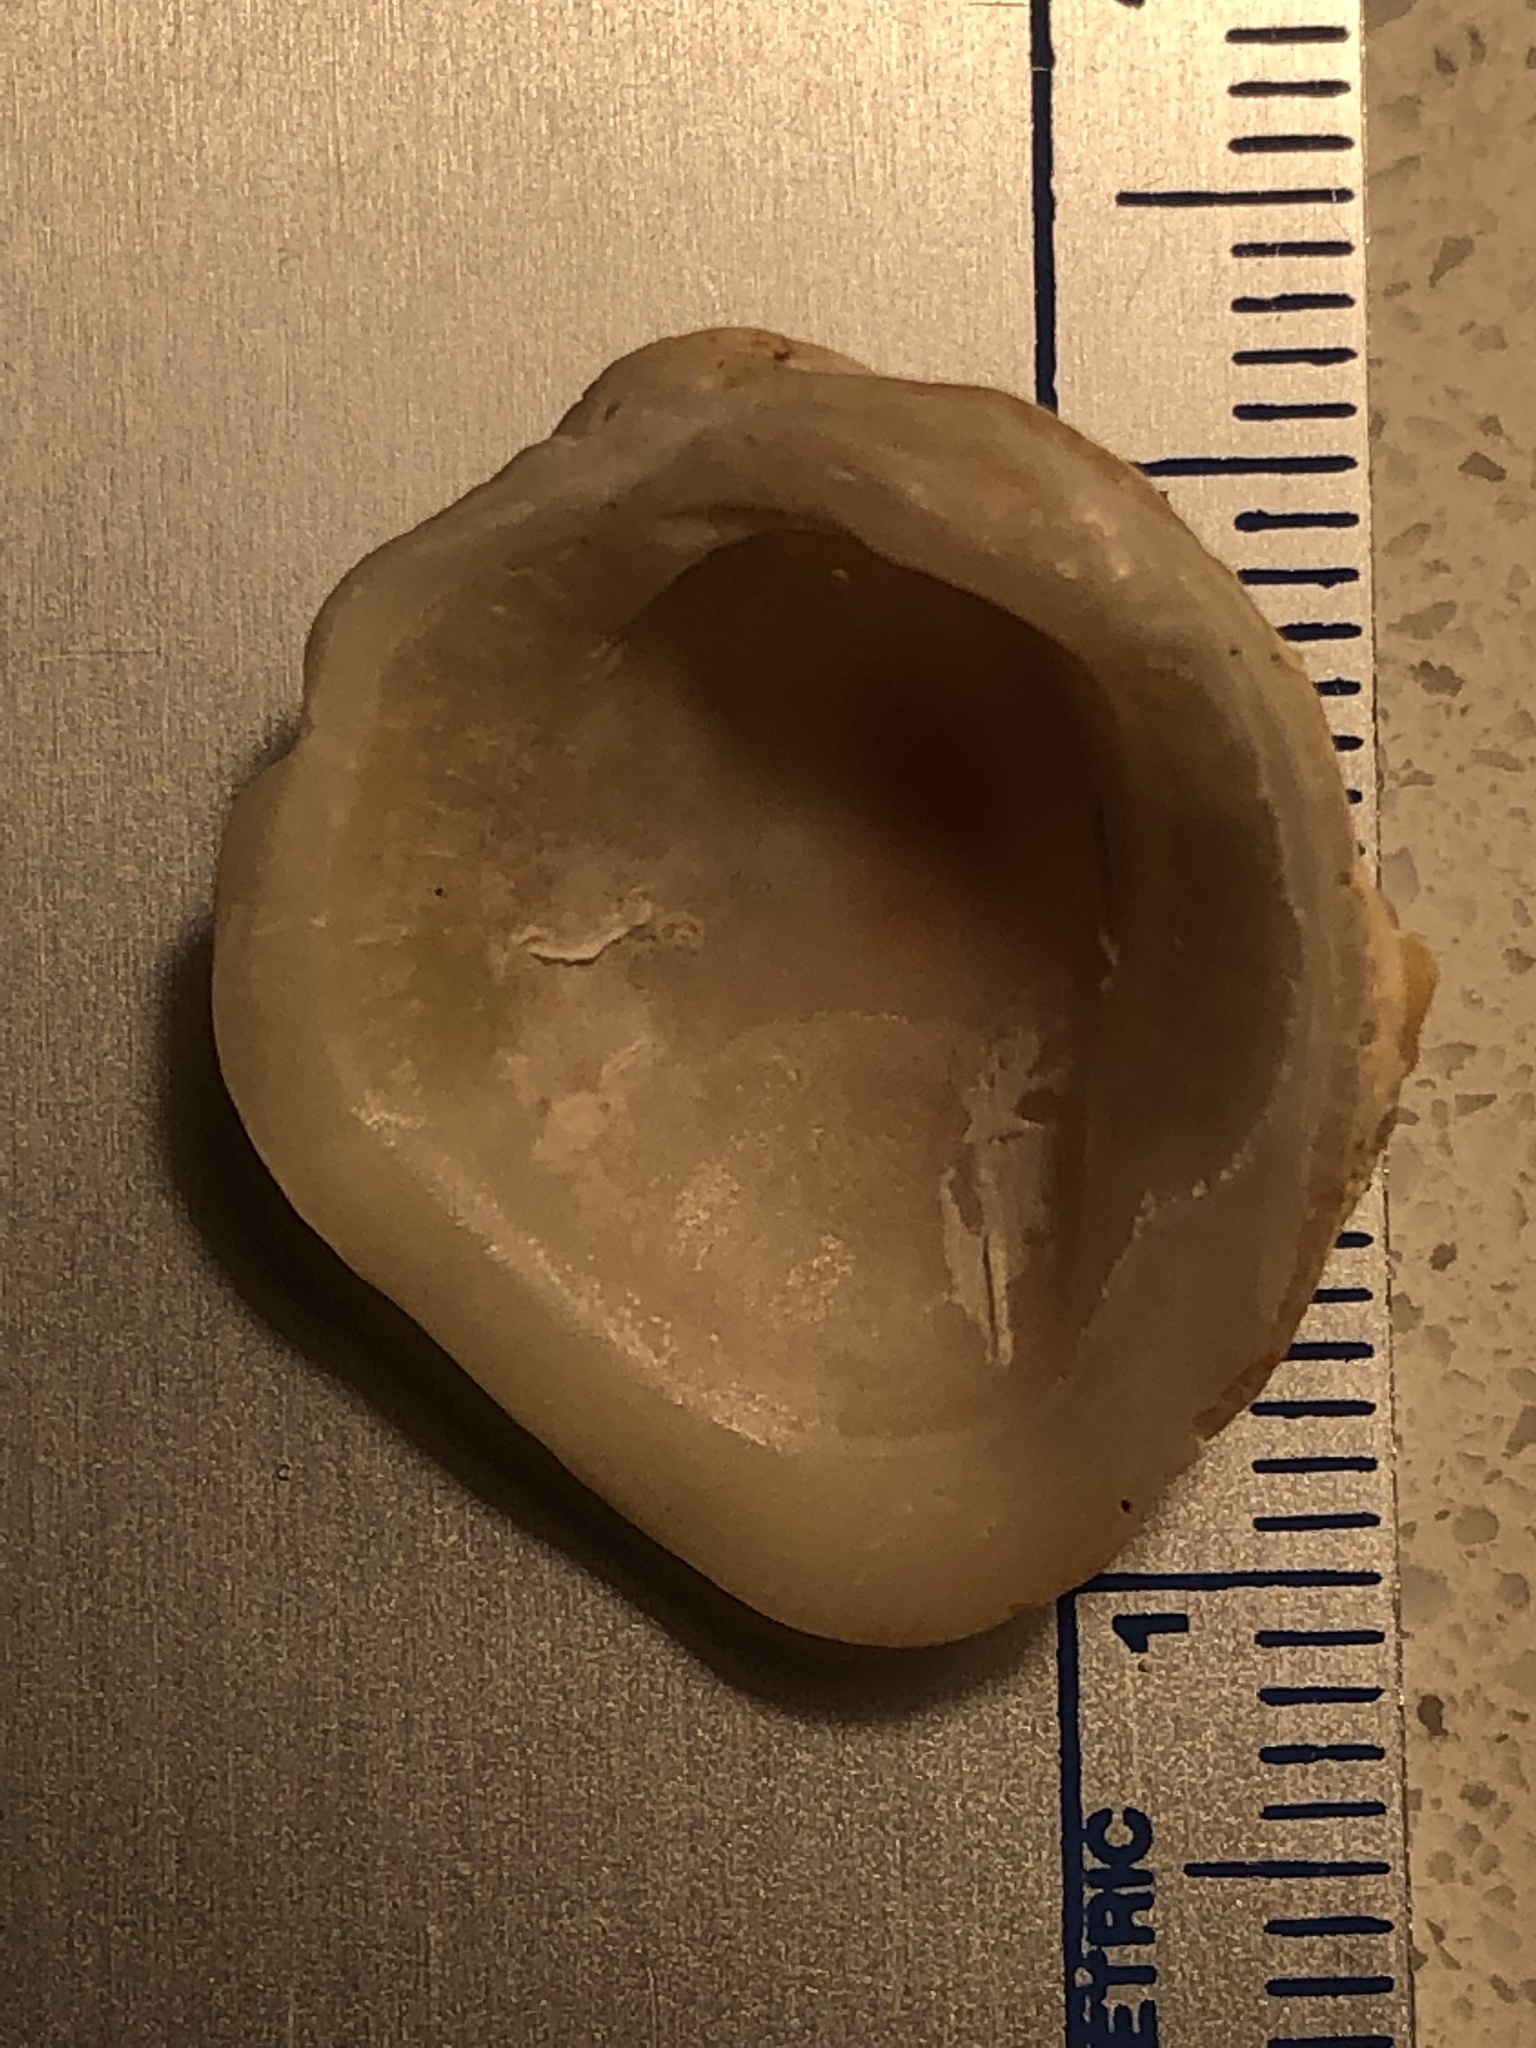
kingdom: Animalia
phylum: Mollusca
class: Bivalvia
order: Venerida
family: Chamidae
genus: Chama
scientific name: Chama congregata
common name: Corrugate jewelbox
